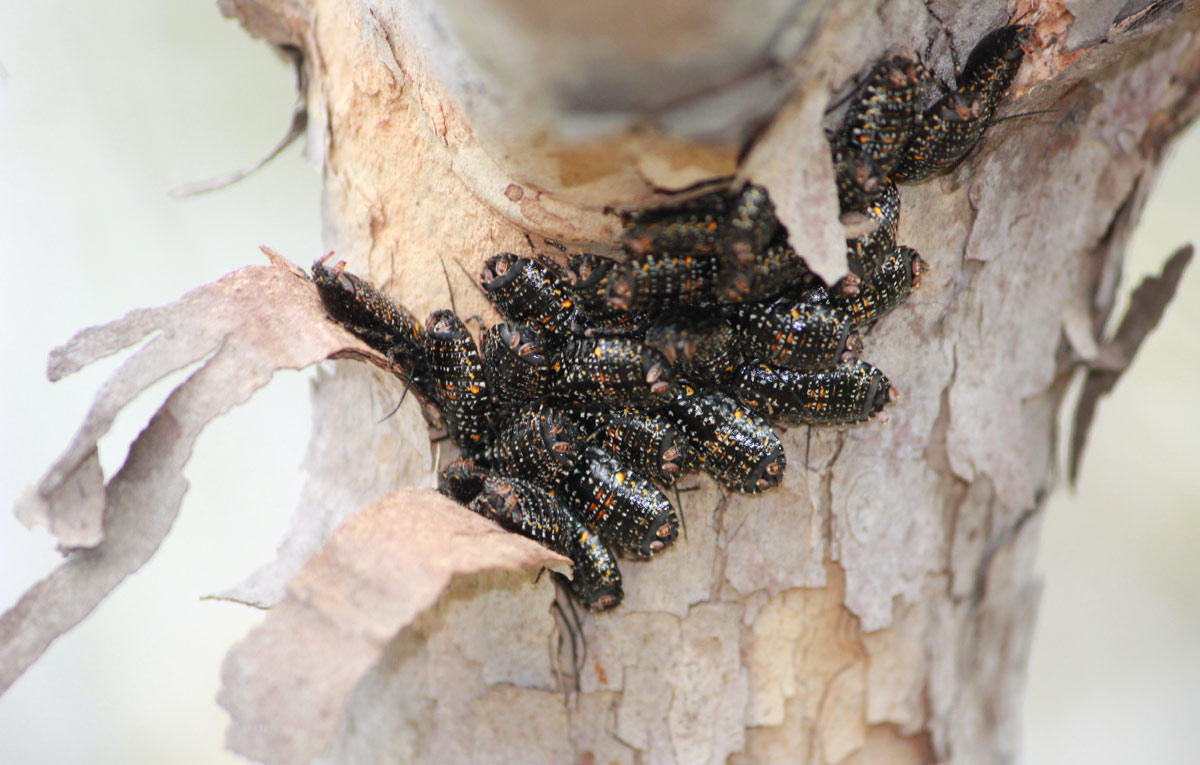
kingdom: Animalia
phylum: Arthropoda
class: Insecta
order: Blattodea
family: Blattidae
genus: Cartoblatta
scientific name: Cartoblatta pulchra
